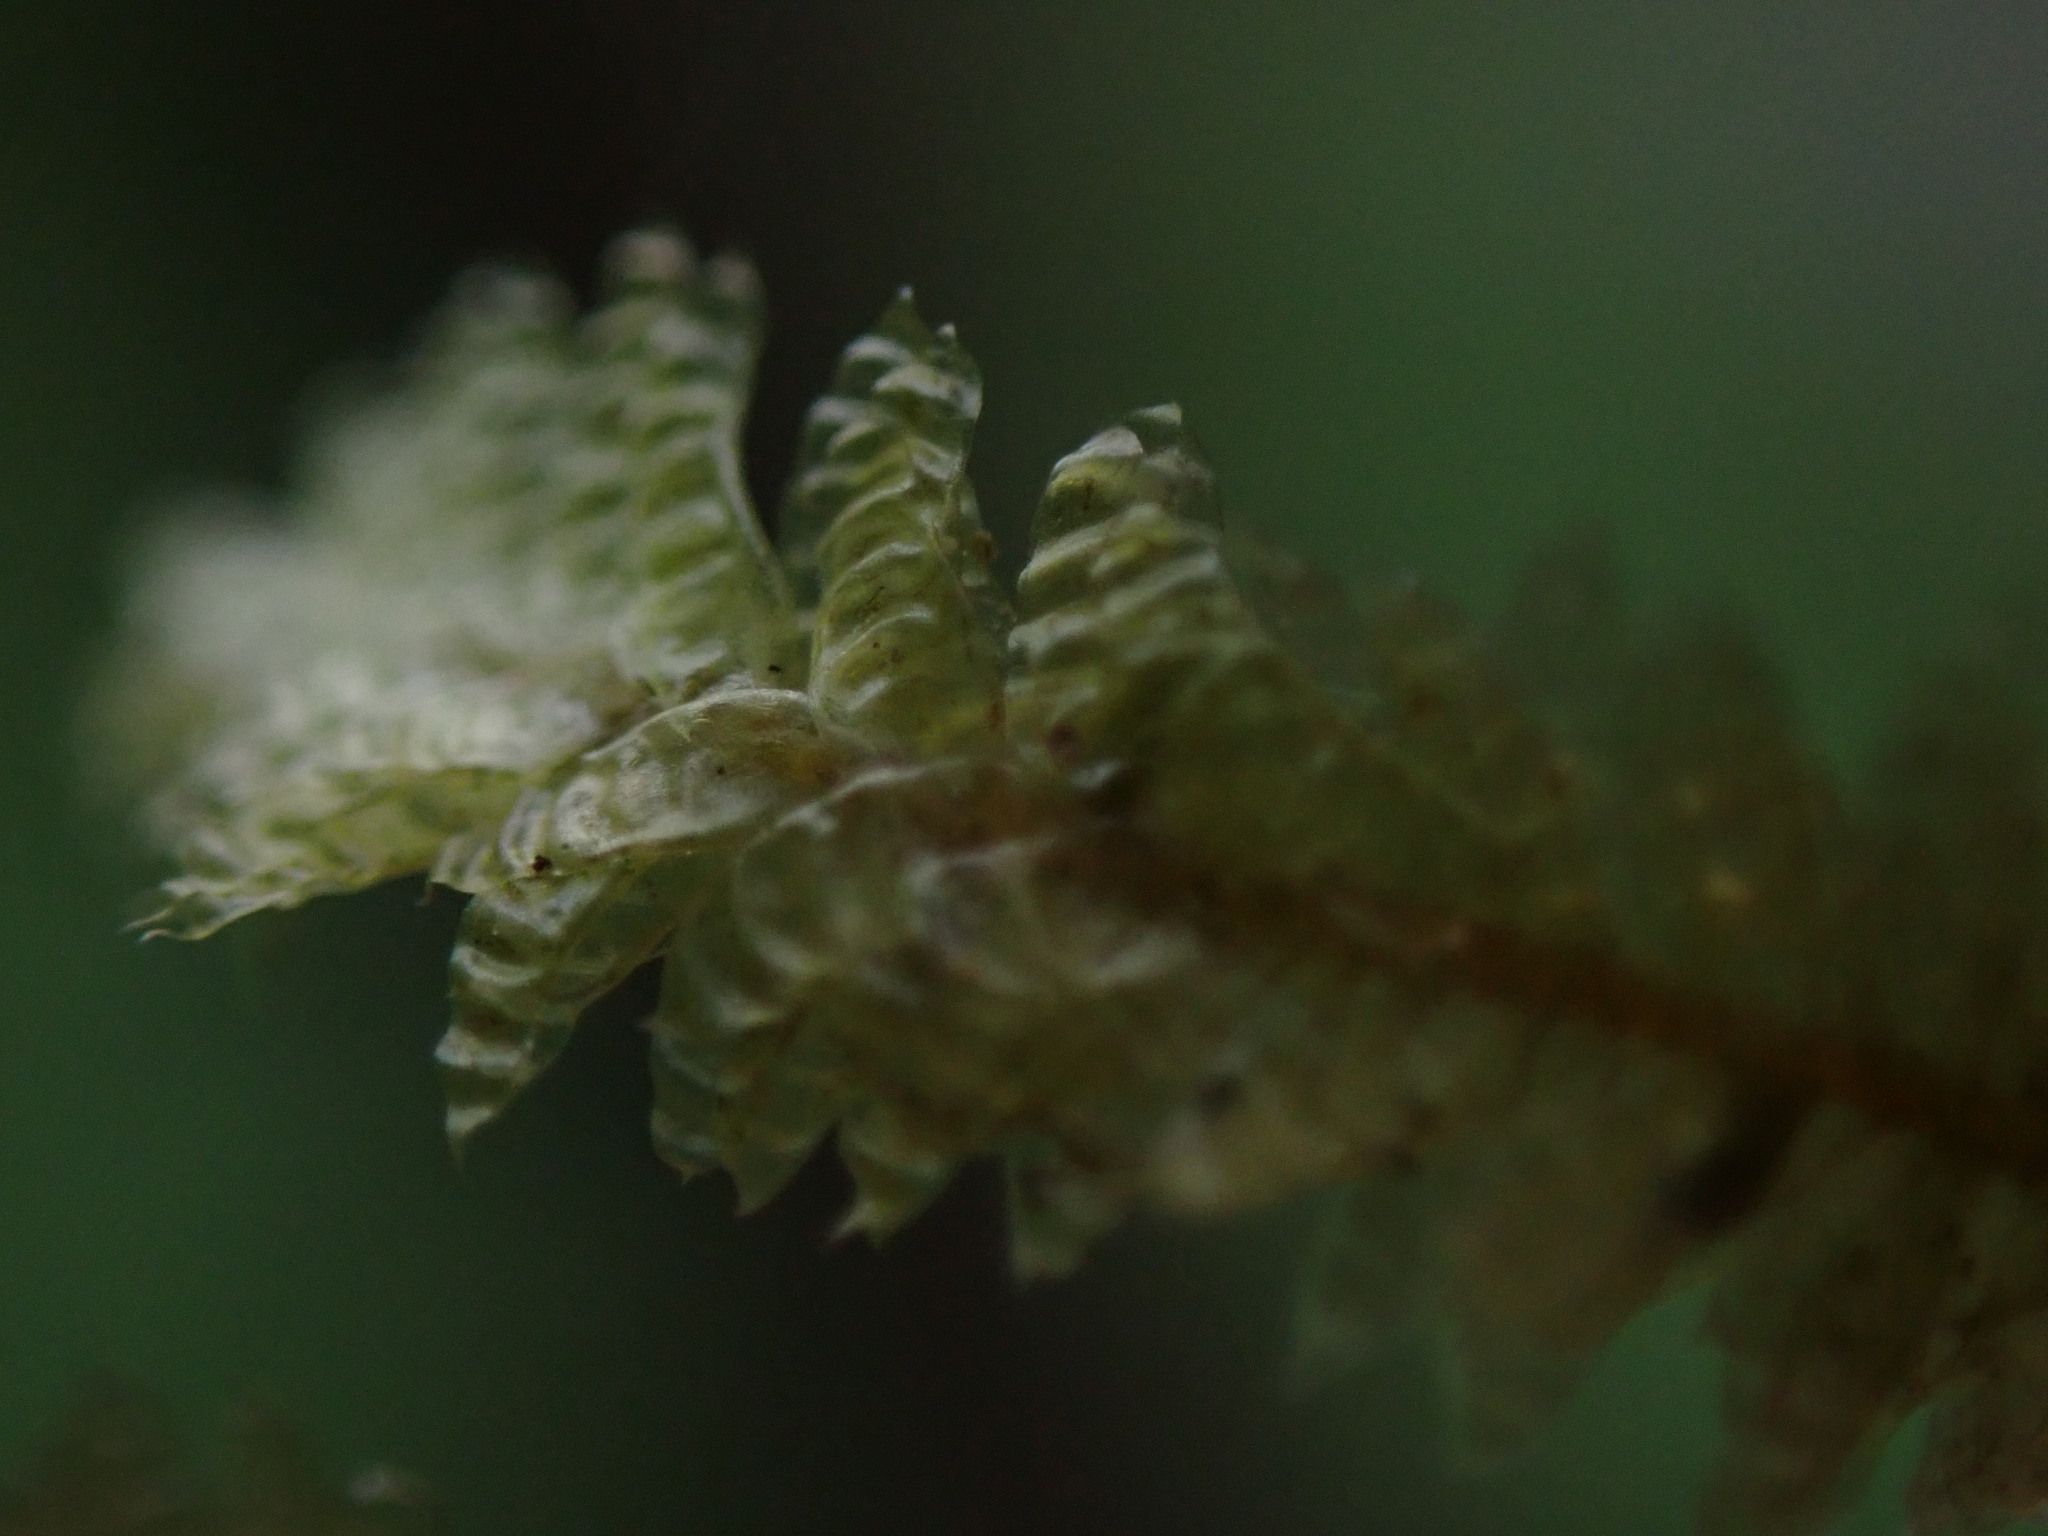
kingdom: Plantae
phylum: Bryophyta
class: Bryopsida
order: Hypnales
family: Neckeraceae
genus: Neckera
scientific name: Neckera pennata
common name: Feathery neckera
